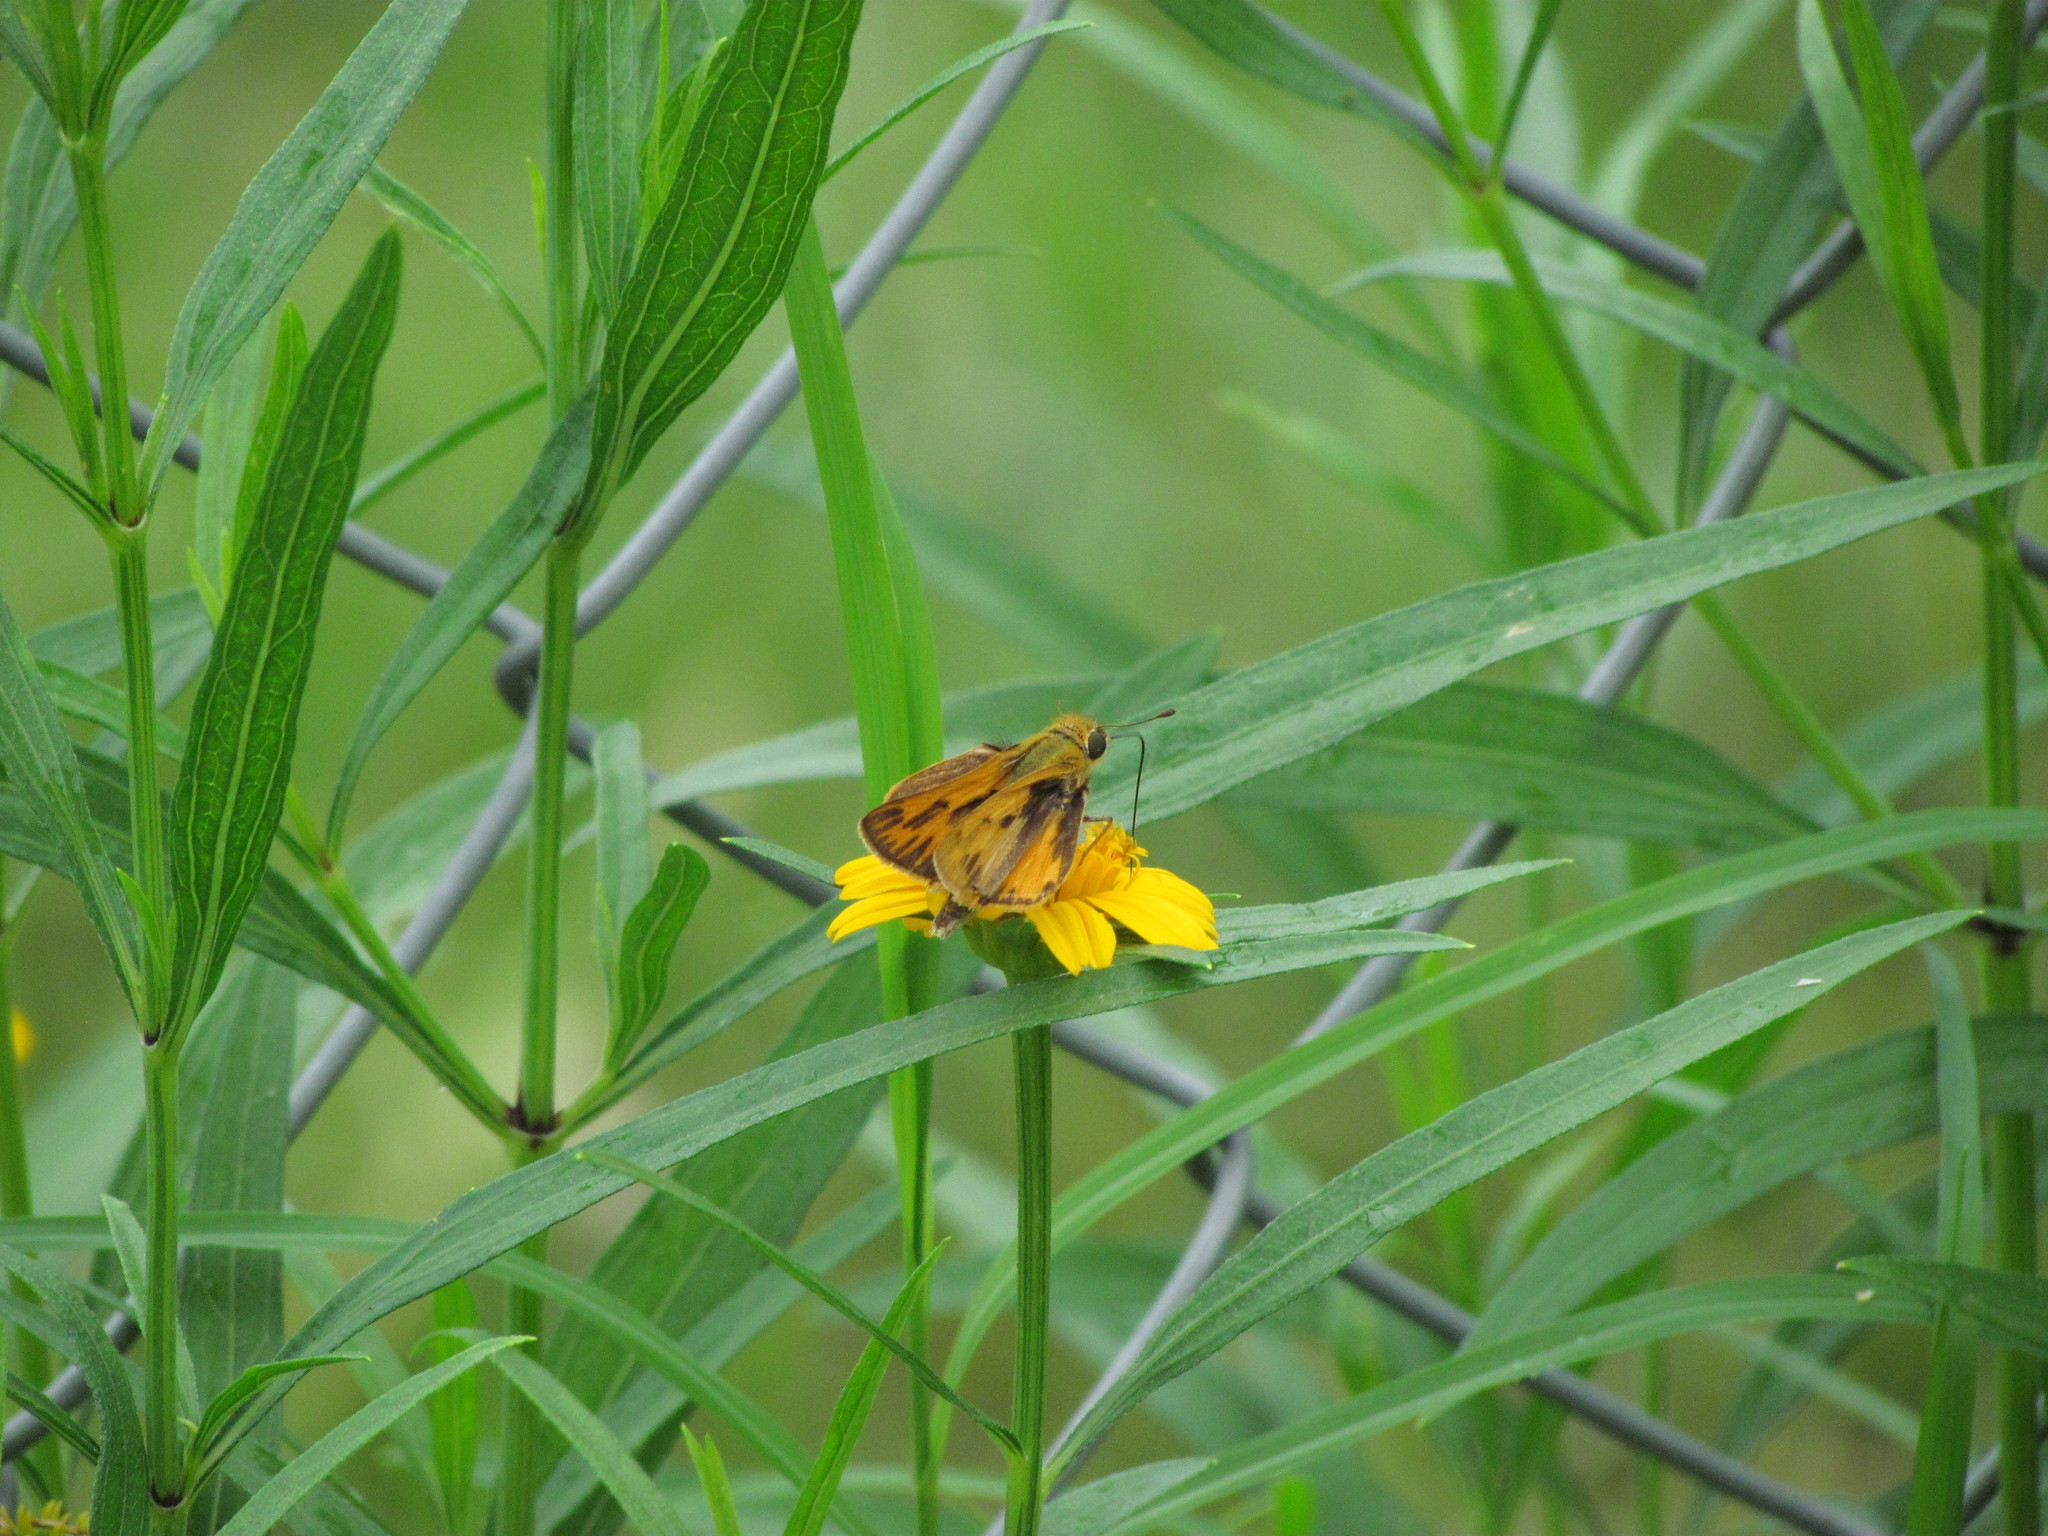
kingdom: Animalia
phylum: Arthropoda
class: Insecta
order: Lepidoptera
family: Hesperiidae
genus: Hylephila
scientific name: Hylephila phyleus
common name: Fiery skipper
